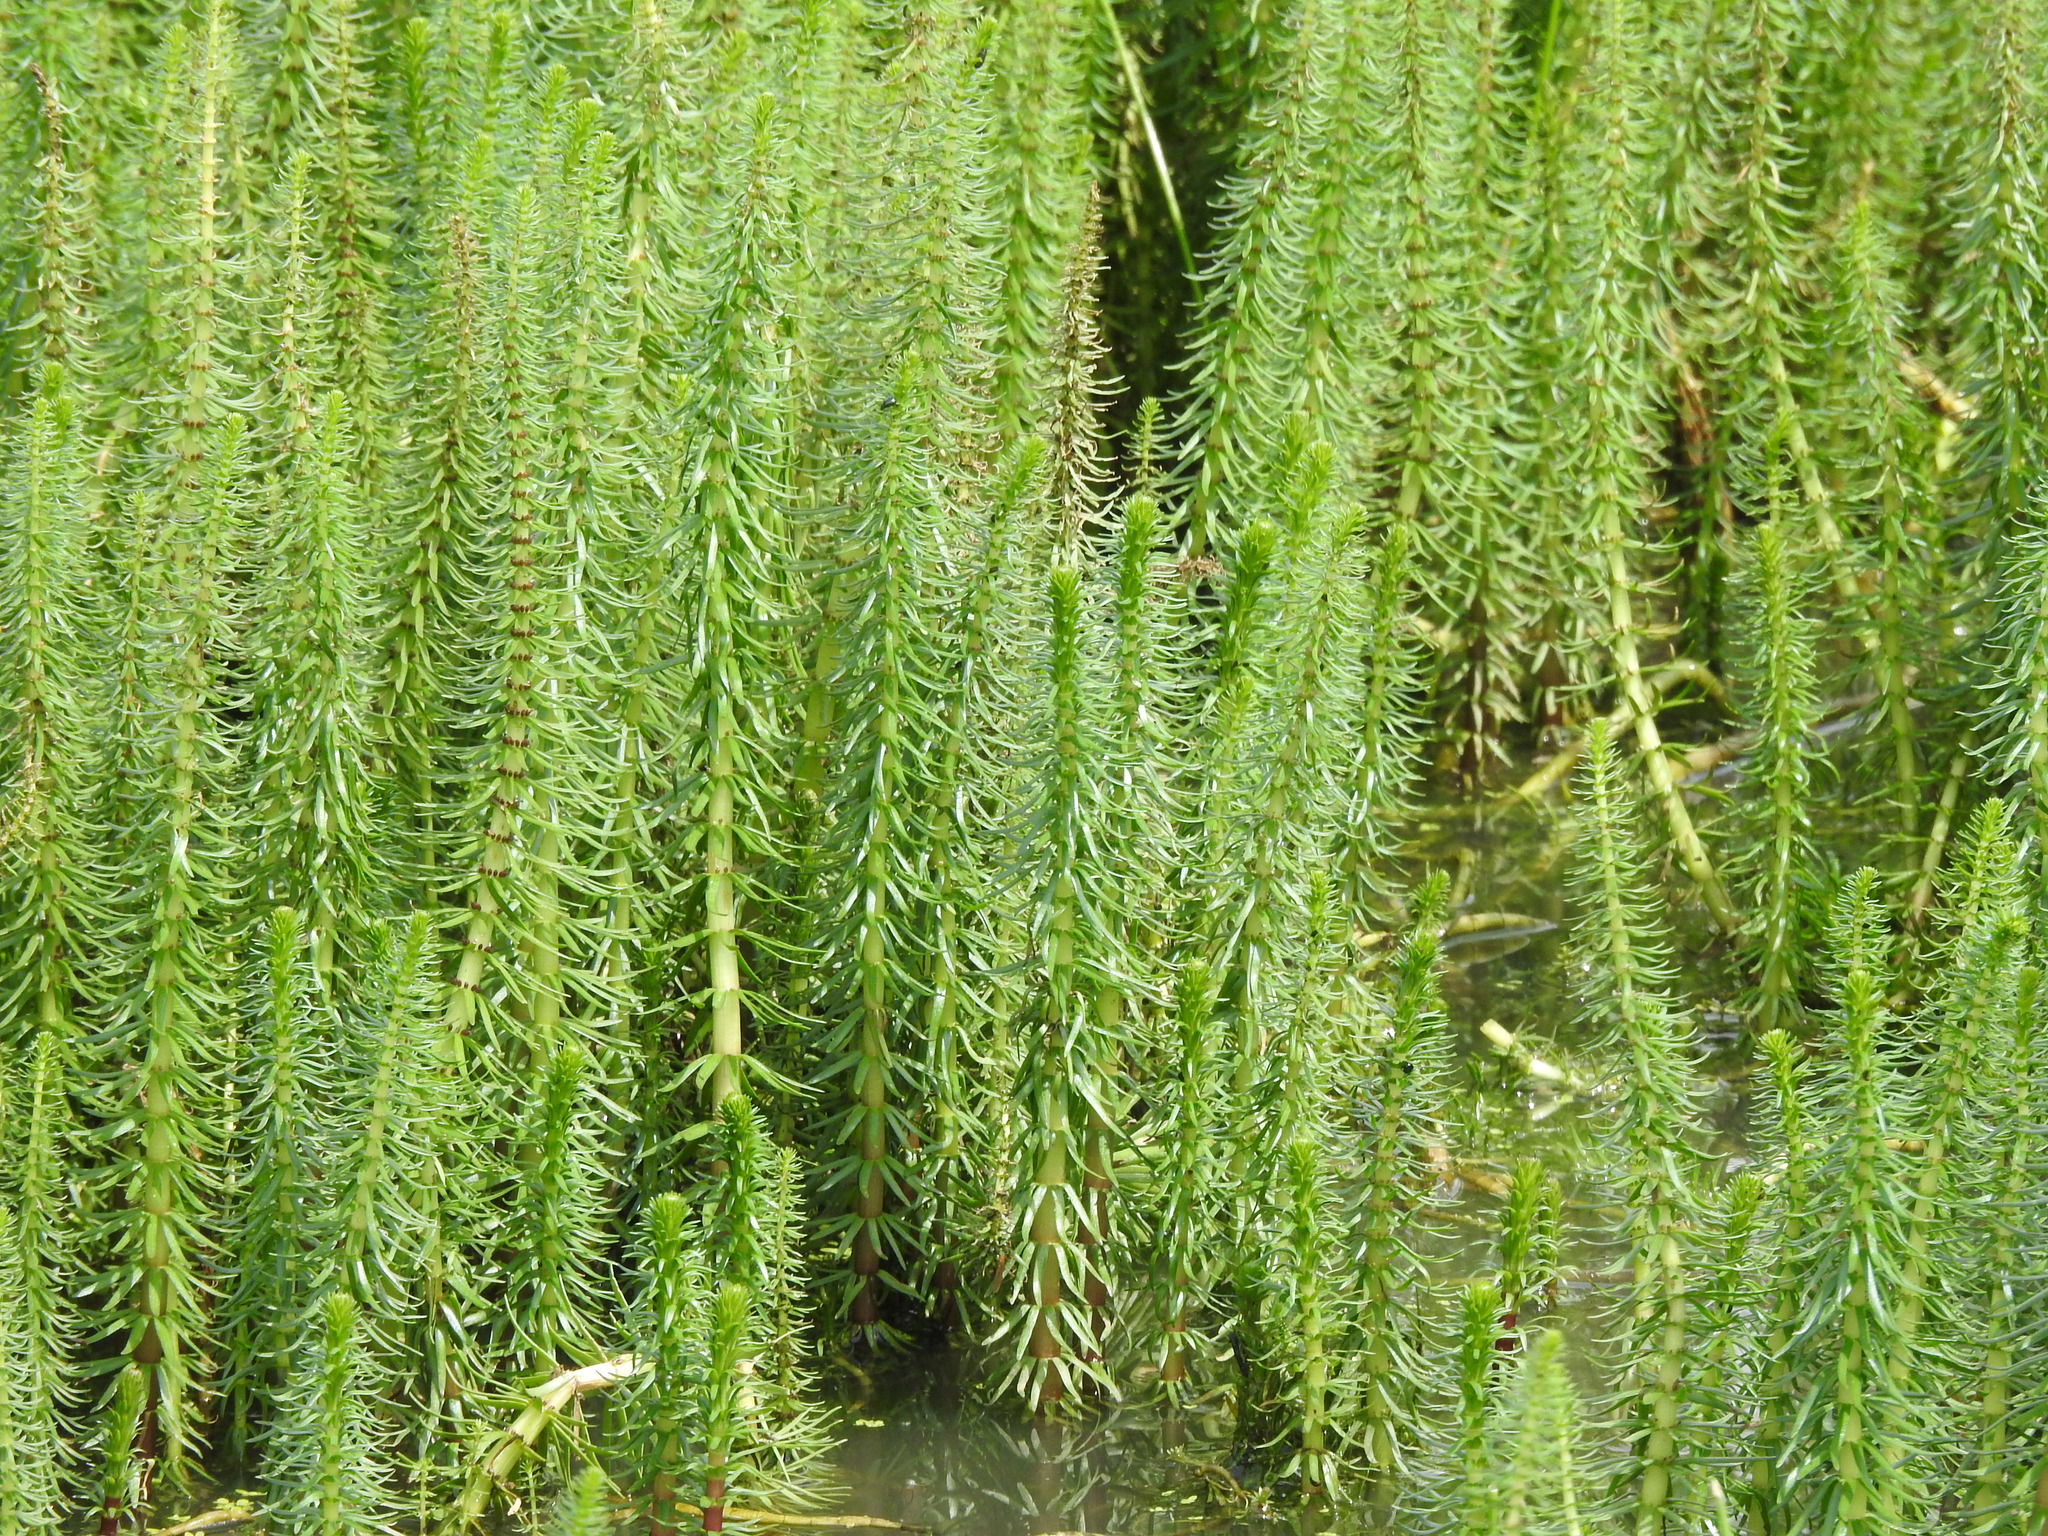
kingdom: Plantae
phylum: Tracheophyta
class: Magnoliopsida
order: Lamiales
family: Plantaginaceae
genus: Hippuris
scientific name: Hippuris vulgaris
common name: Mare's-tail
